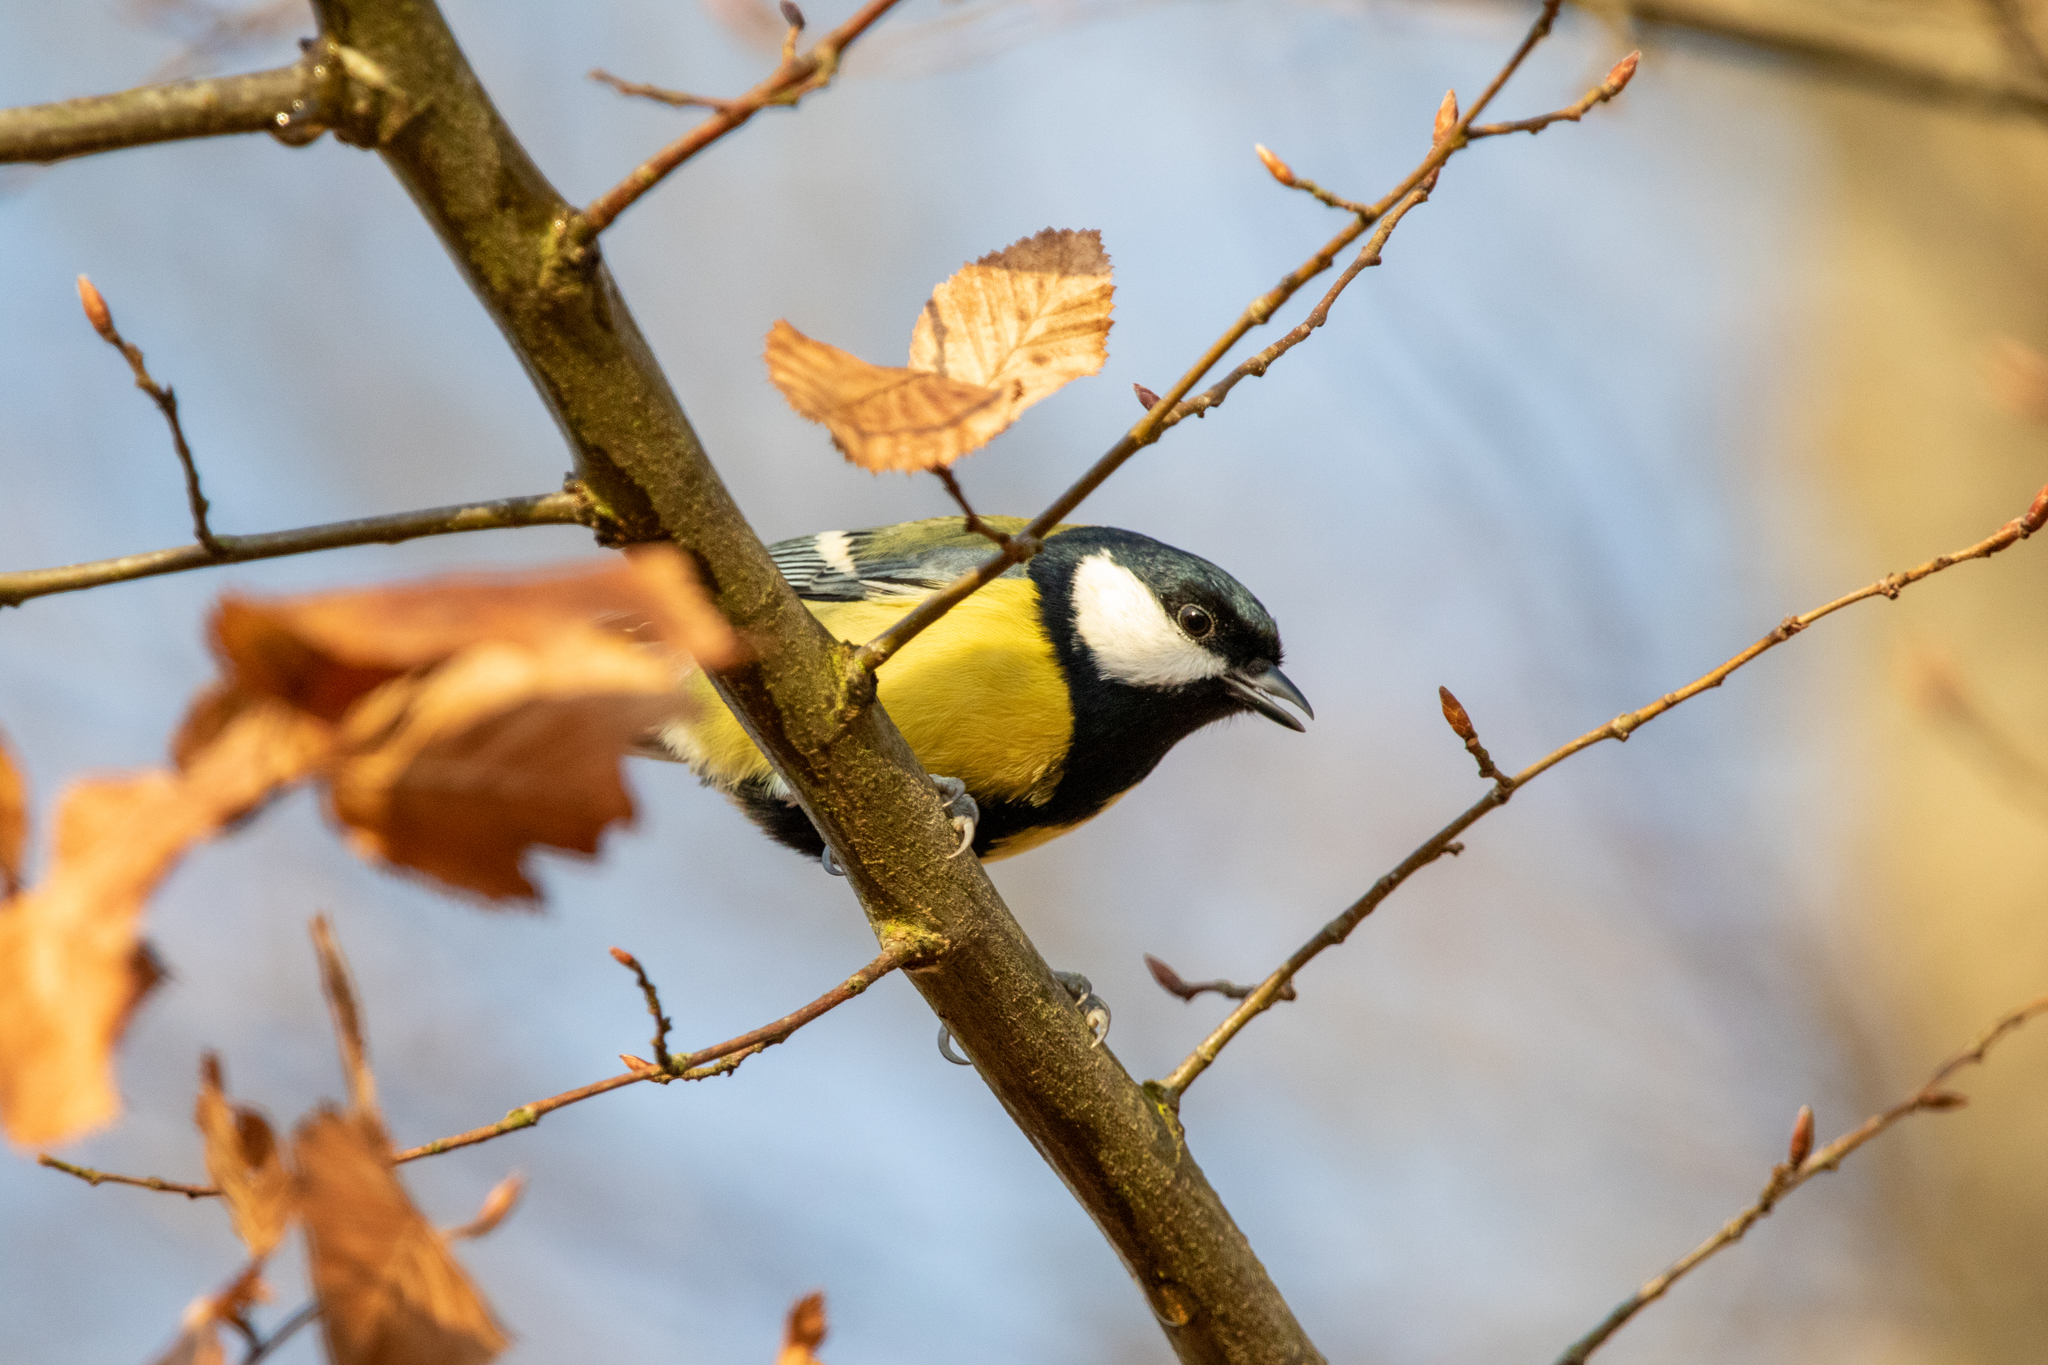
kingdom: Animalia
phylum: Chordata
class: Aves
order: Passeriformes
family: Paridae
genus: Parus
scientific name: Parus major
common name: Great tit
